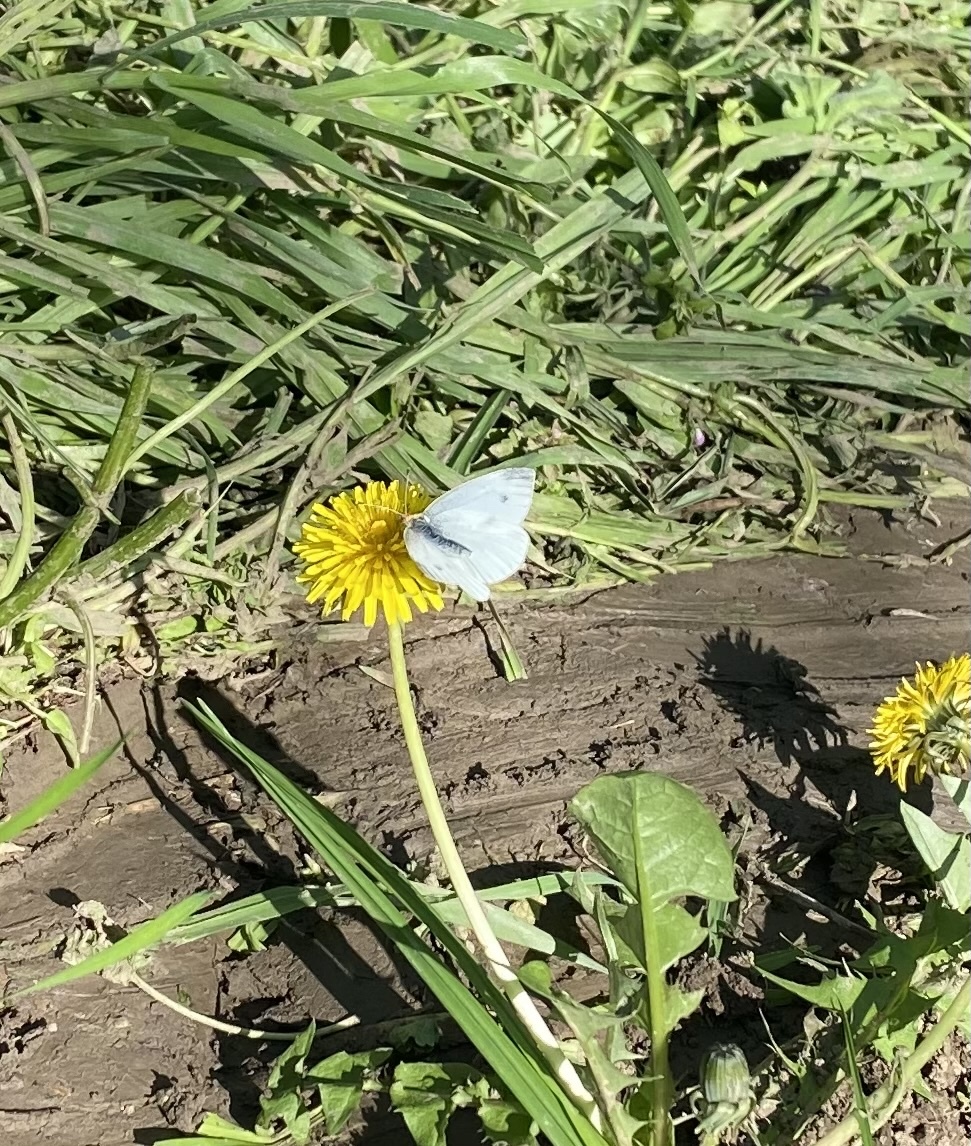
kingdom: Animalia
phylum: Arthropoda
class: Insecta
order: Lepidoptera
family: Pieridae
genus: Pieris
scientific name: Pieris napi
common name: Green-veined white
